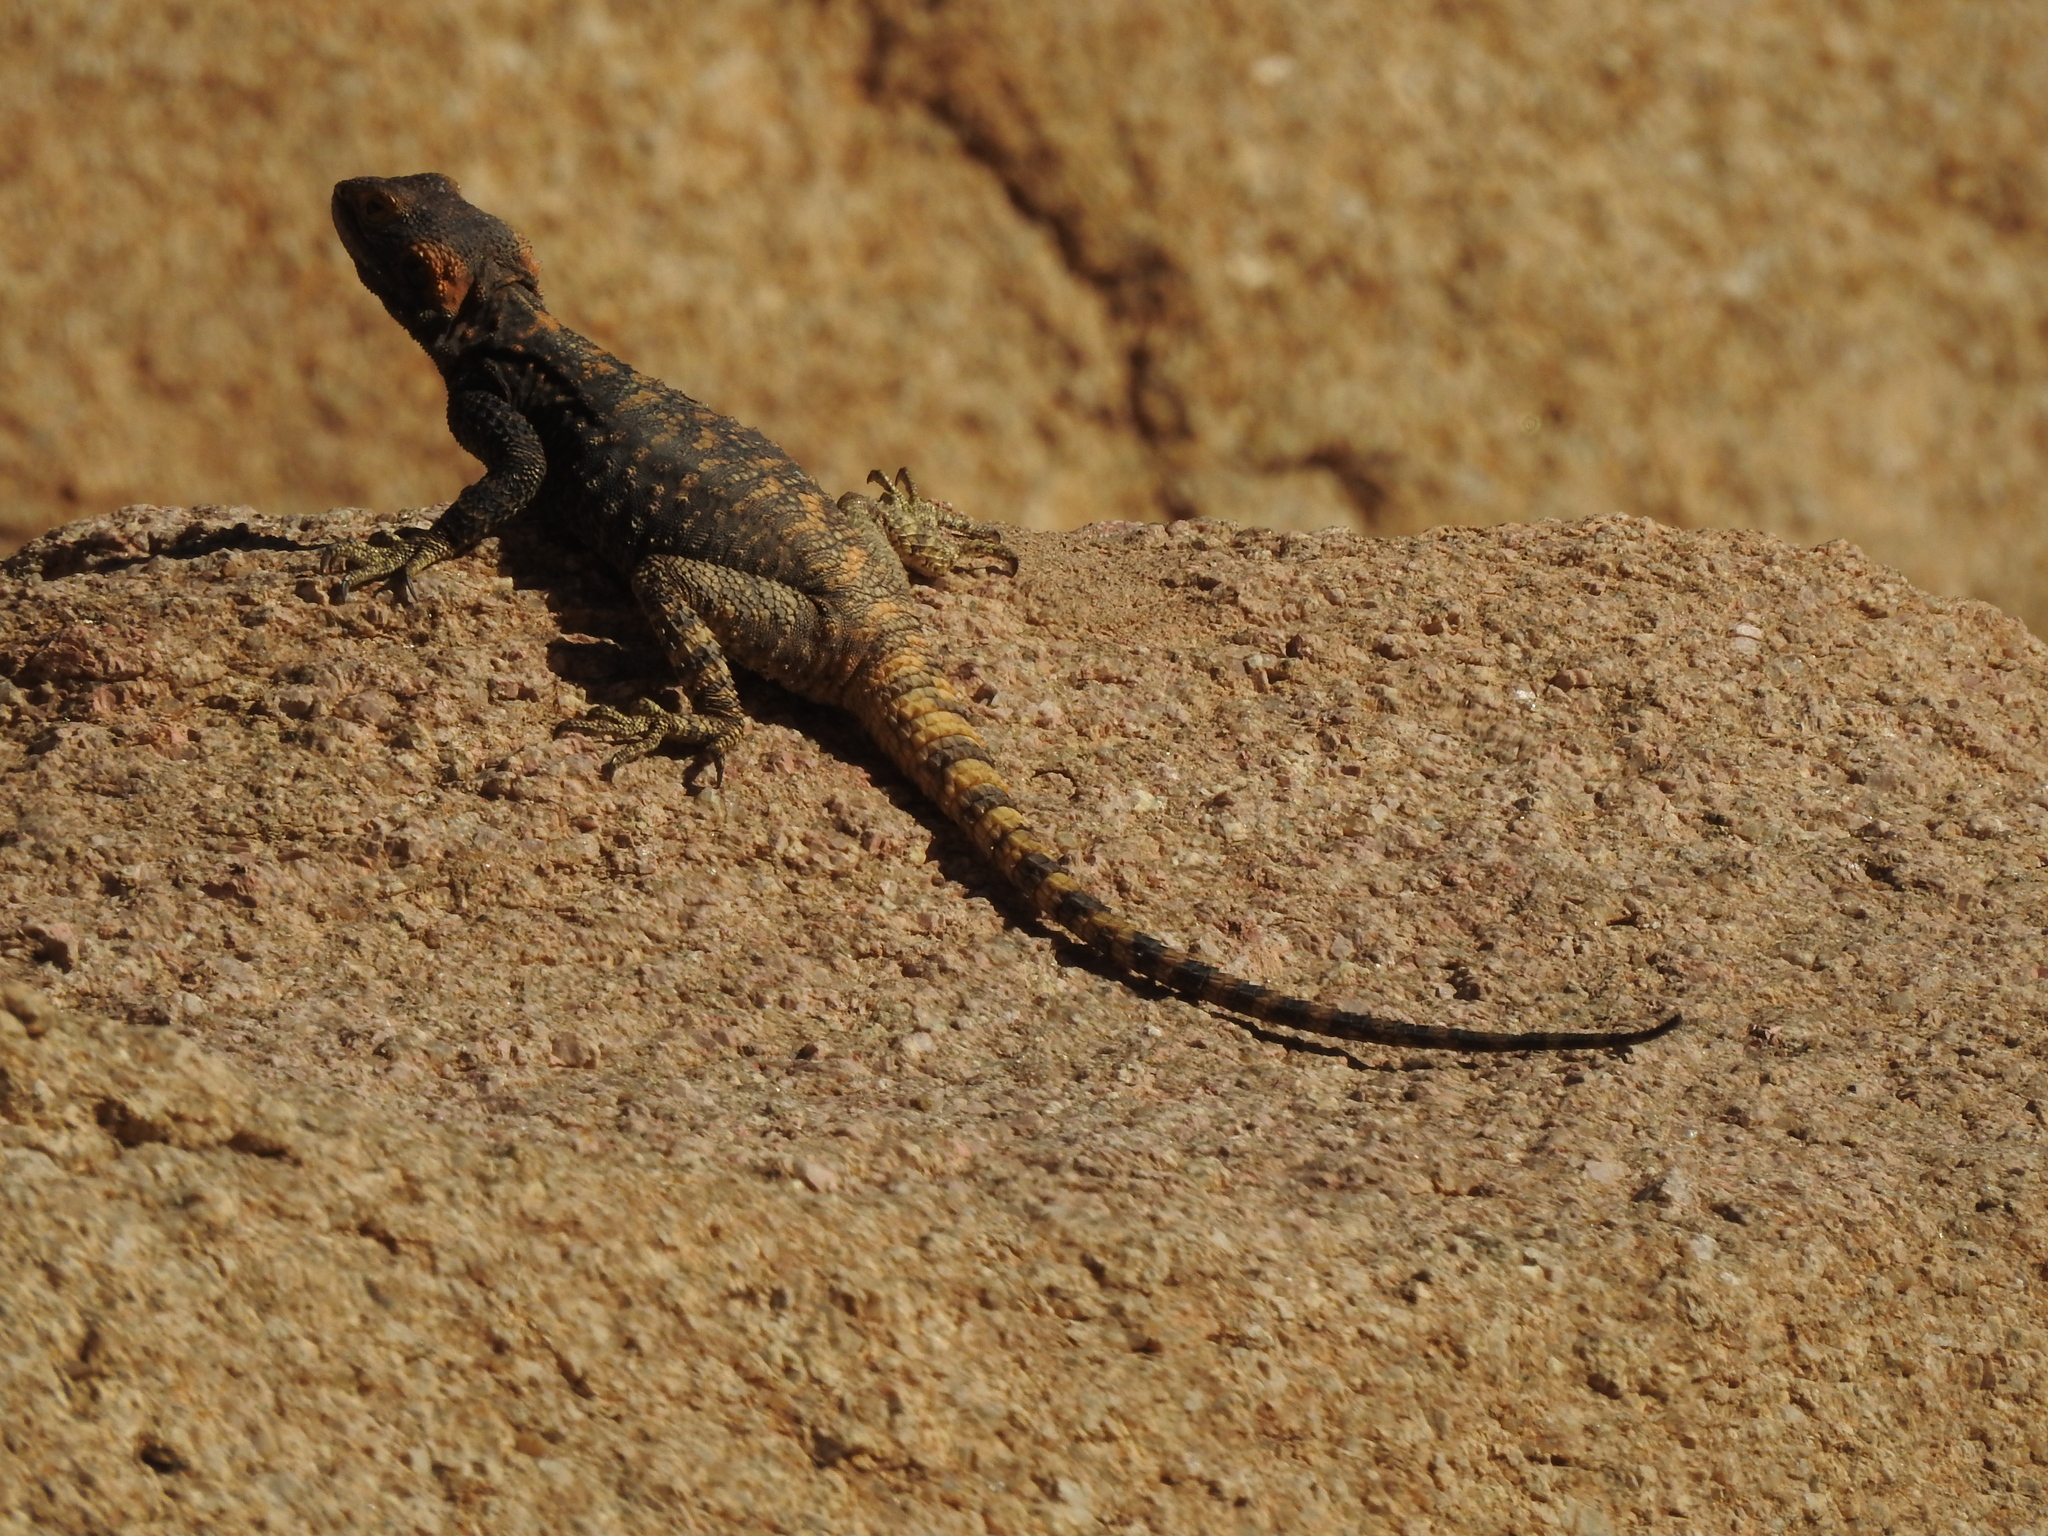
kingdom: Animalia
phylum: Chordata
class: Squamata
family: Agamidae
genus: Laudakia
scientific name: Laudakia vulgaris
